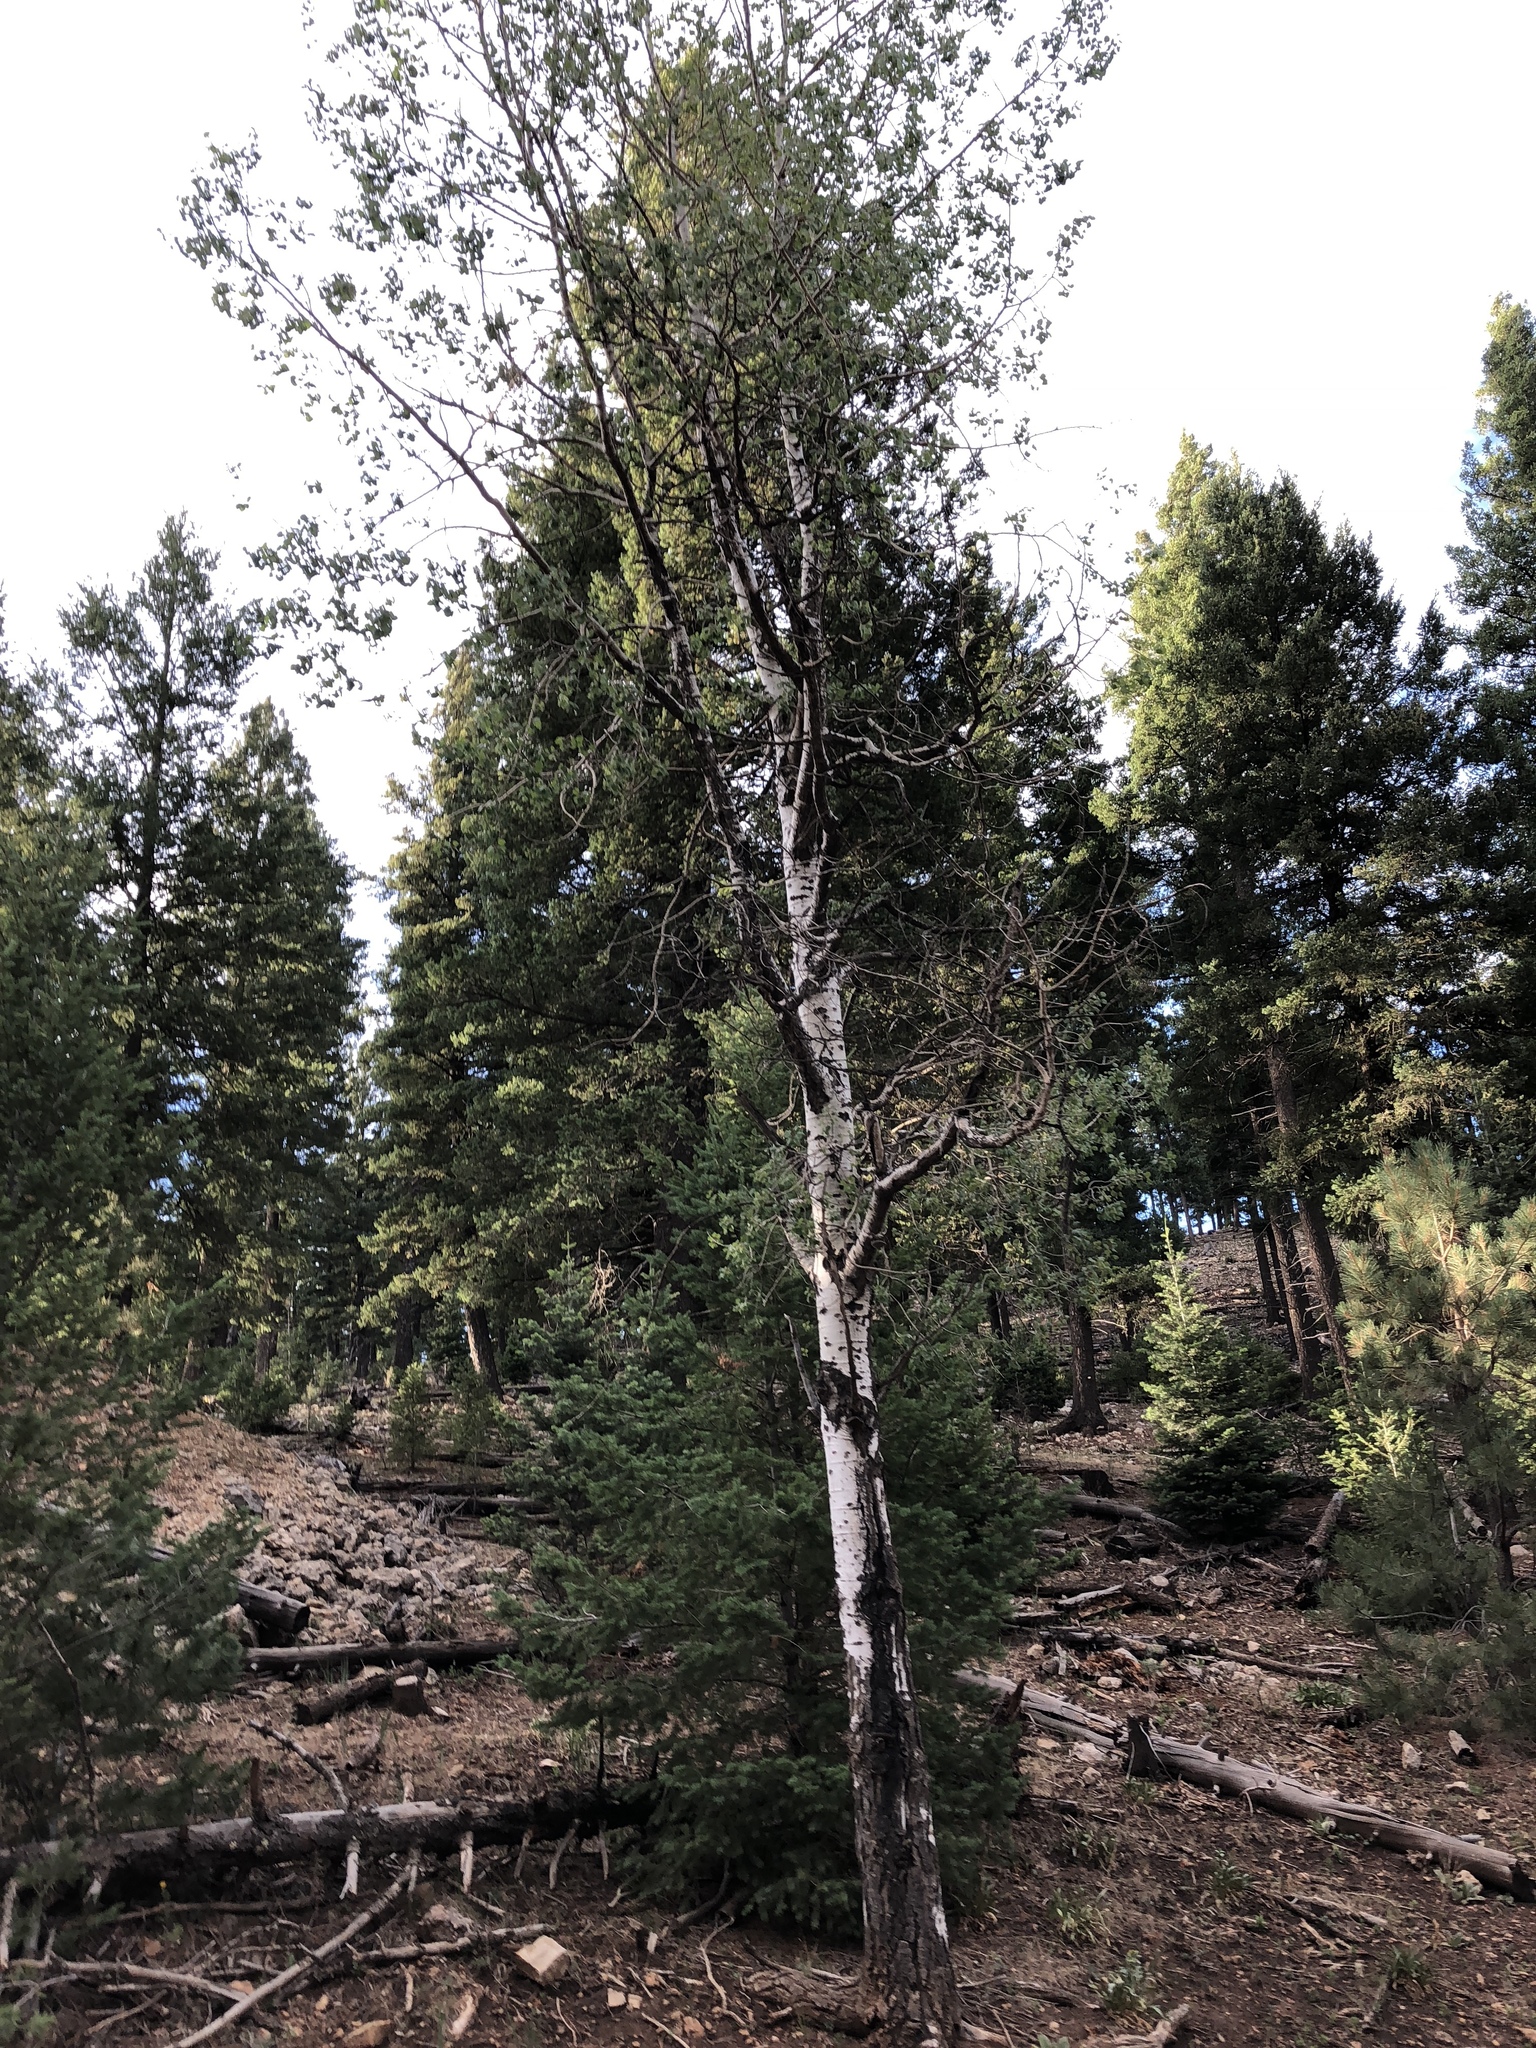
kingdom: Plantae
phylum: Tracheophyta
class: Magnoliopsida
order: Malpighiales
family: Salicaceae
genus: Populus
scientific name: Populus tremuloides
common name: Quaking aspen
